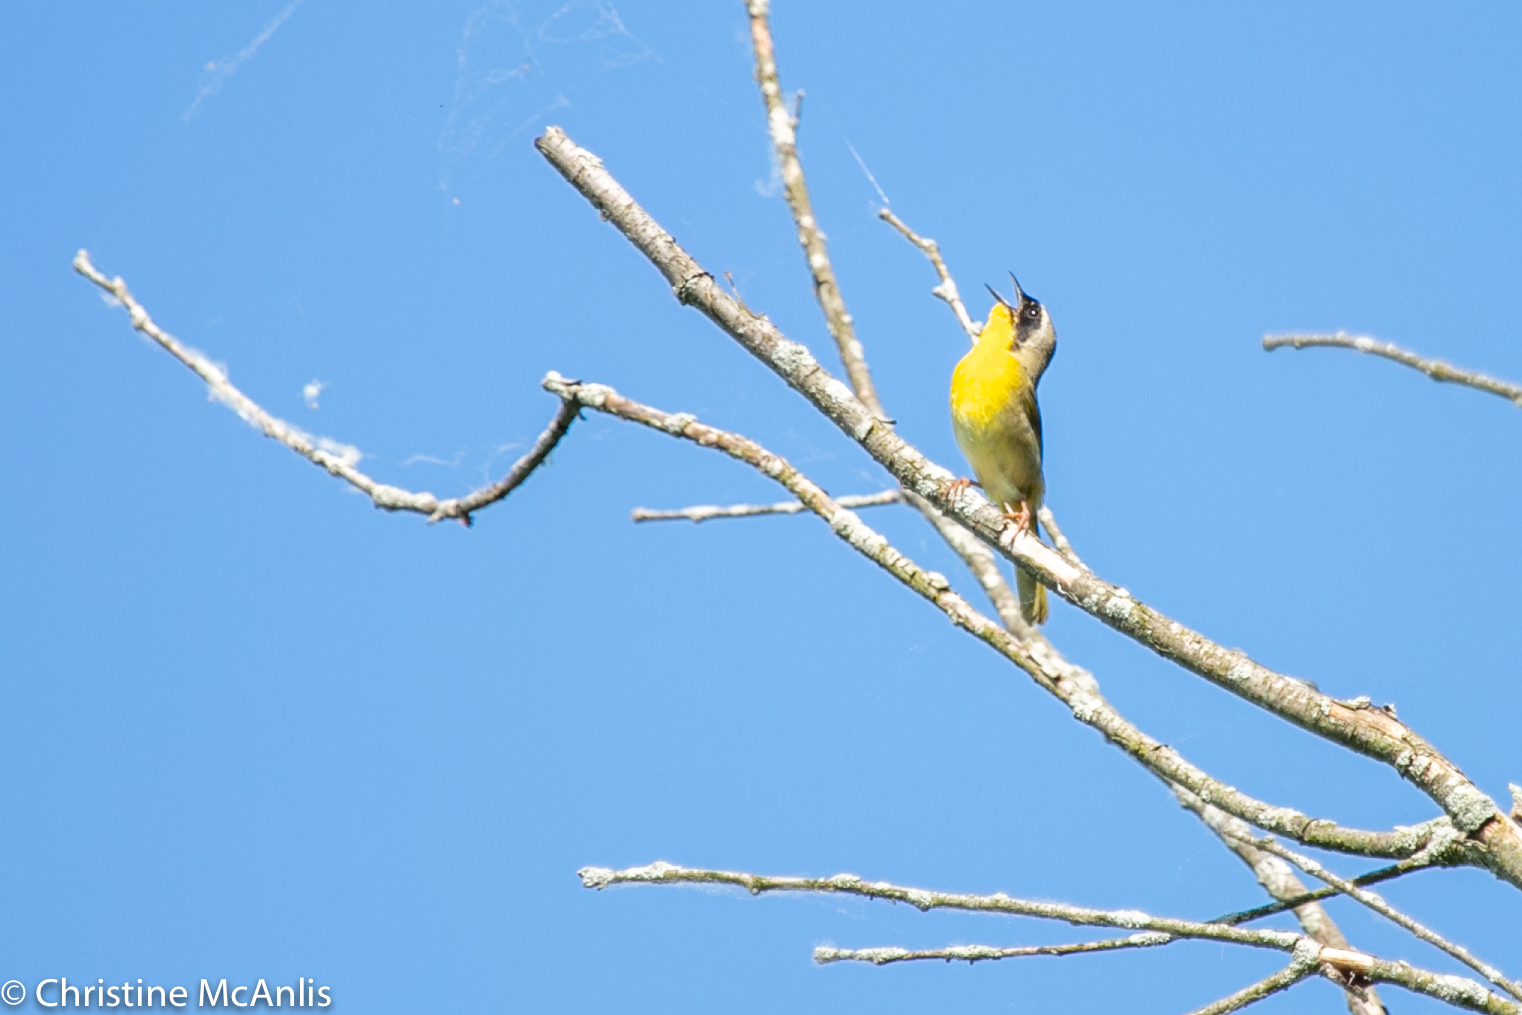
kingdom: Animalia
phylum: Chordata
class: Aves
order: Passeriformes
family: Parulidae
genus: Geothlypis
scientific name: Geothlypis trichas
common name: Common yellowthroat
